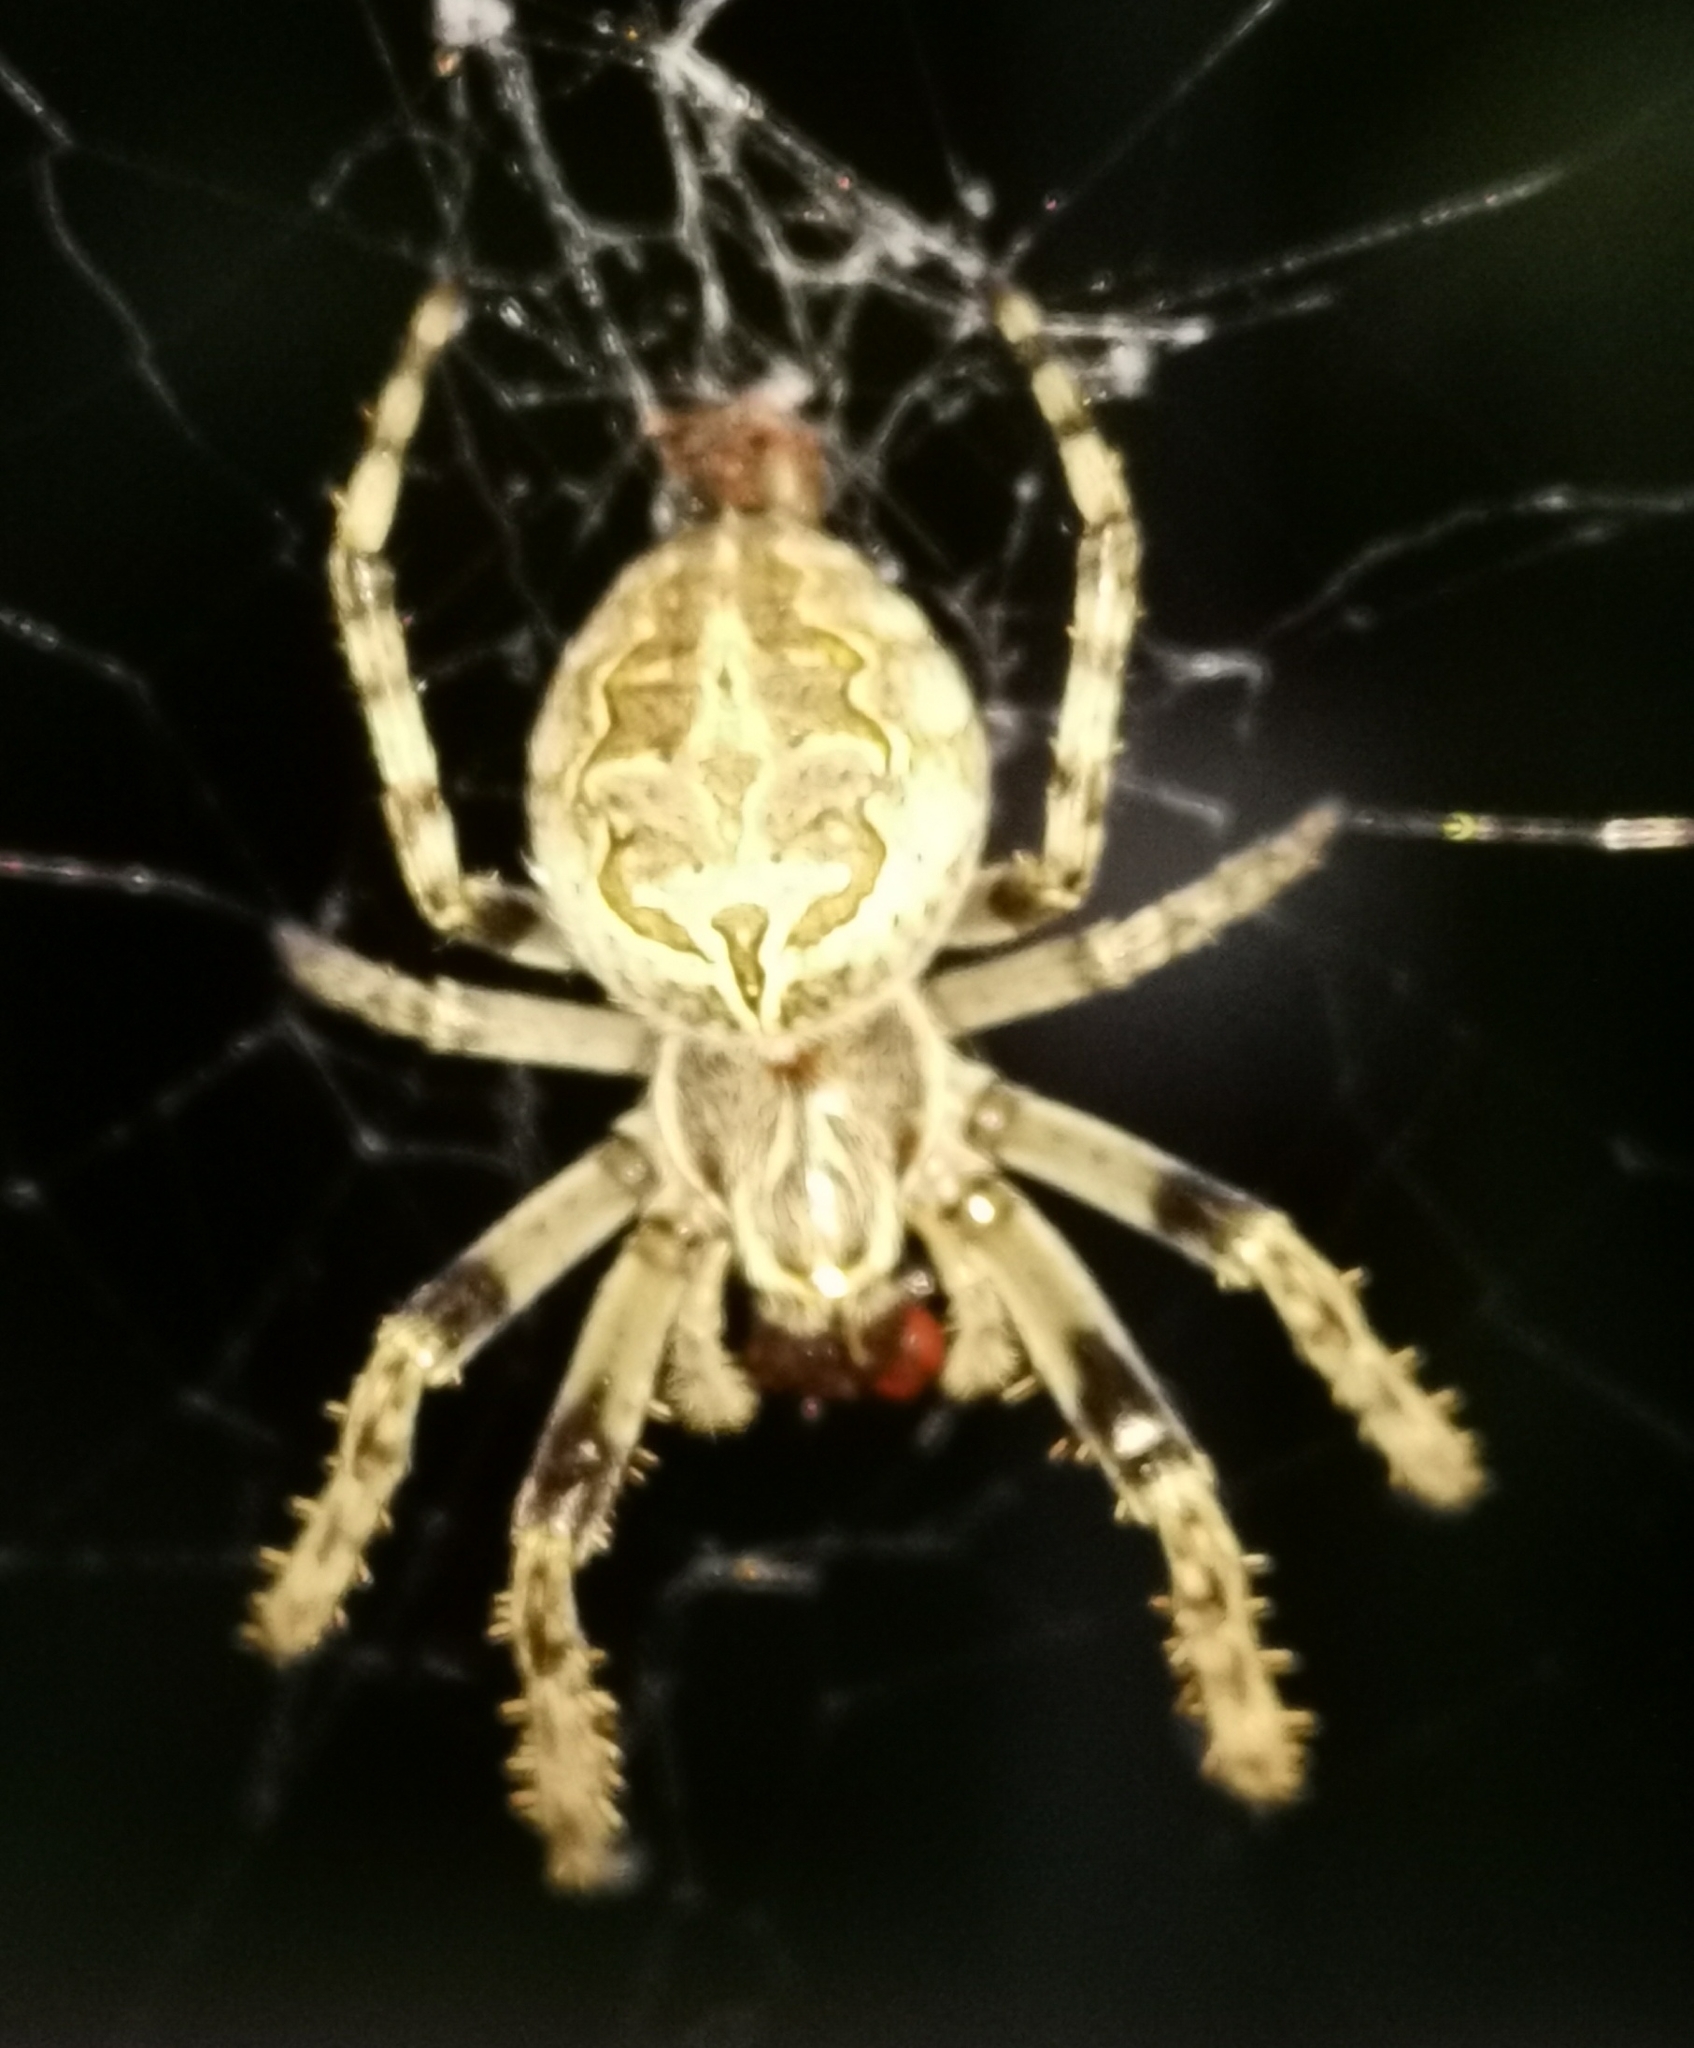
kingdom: Animalia
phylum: Arthropoda
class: Arachnida
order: Araneae
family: Araneidae
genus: Larinioides
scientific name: Larinioides sclopetarius
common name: Bridge orbweaver
